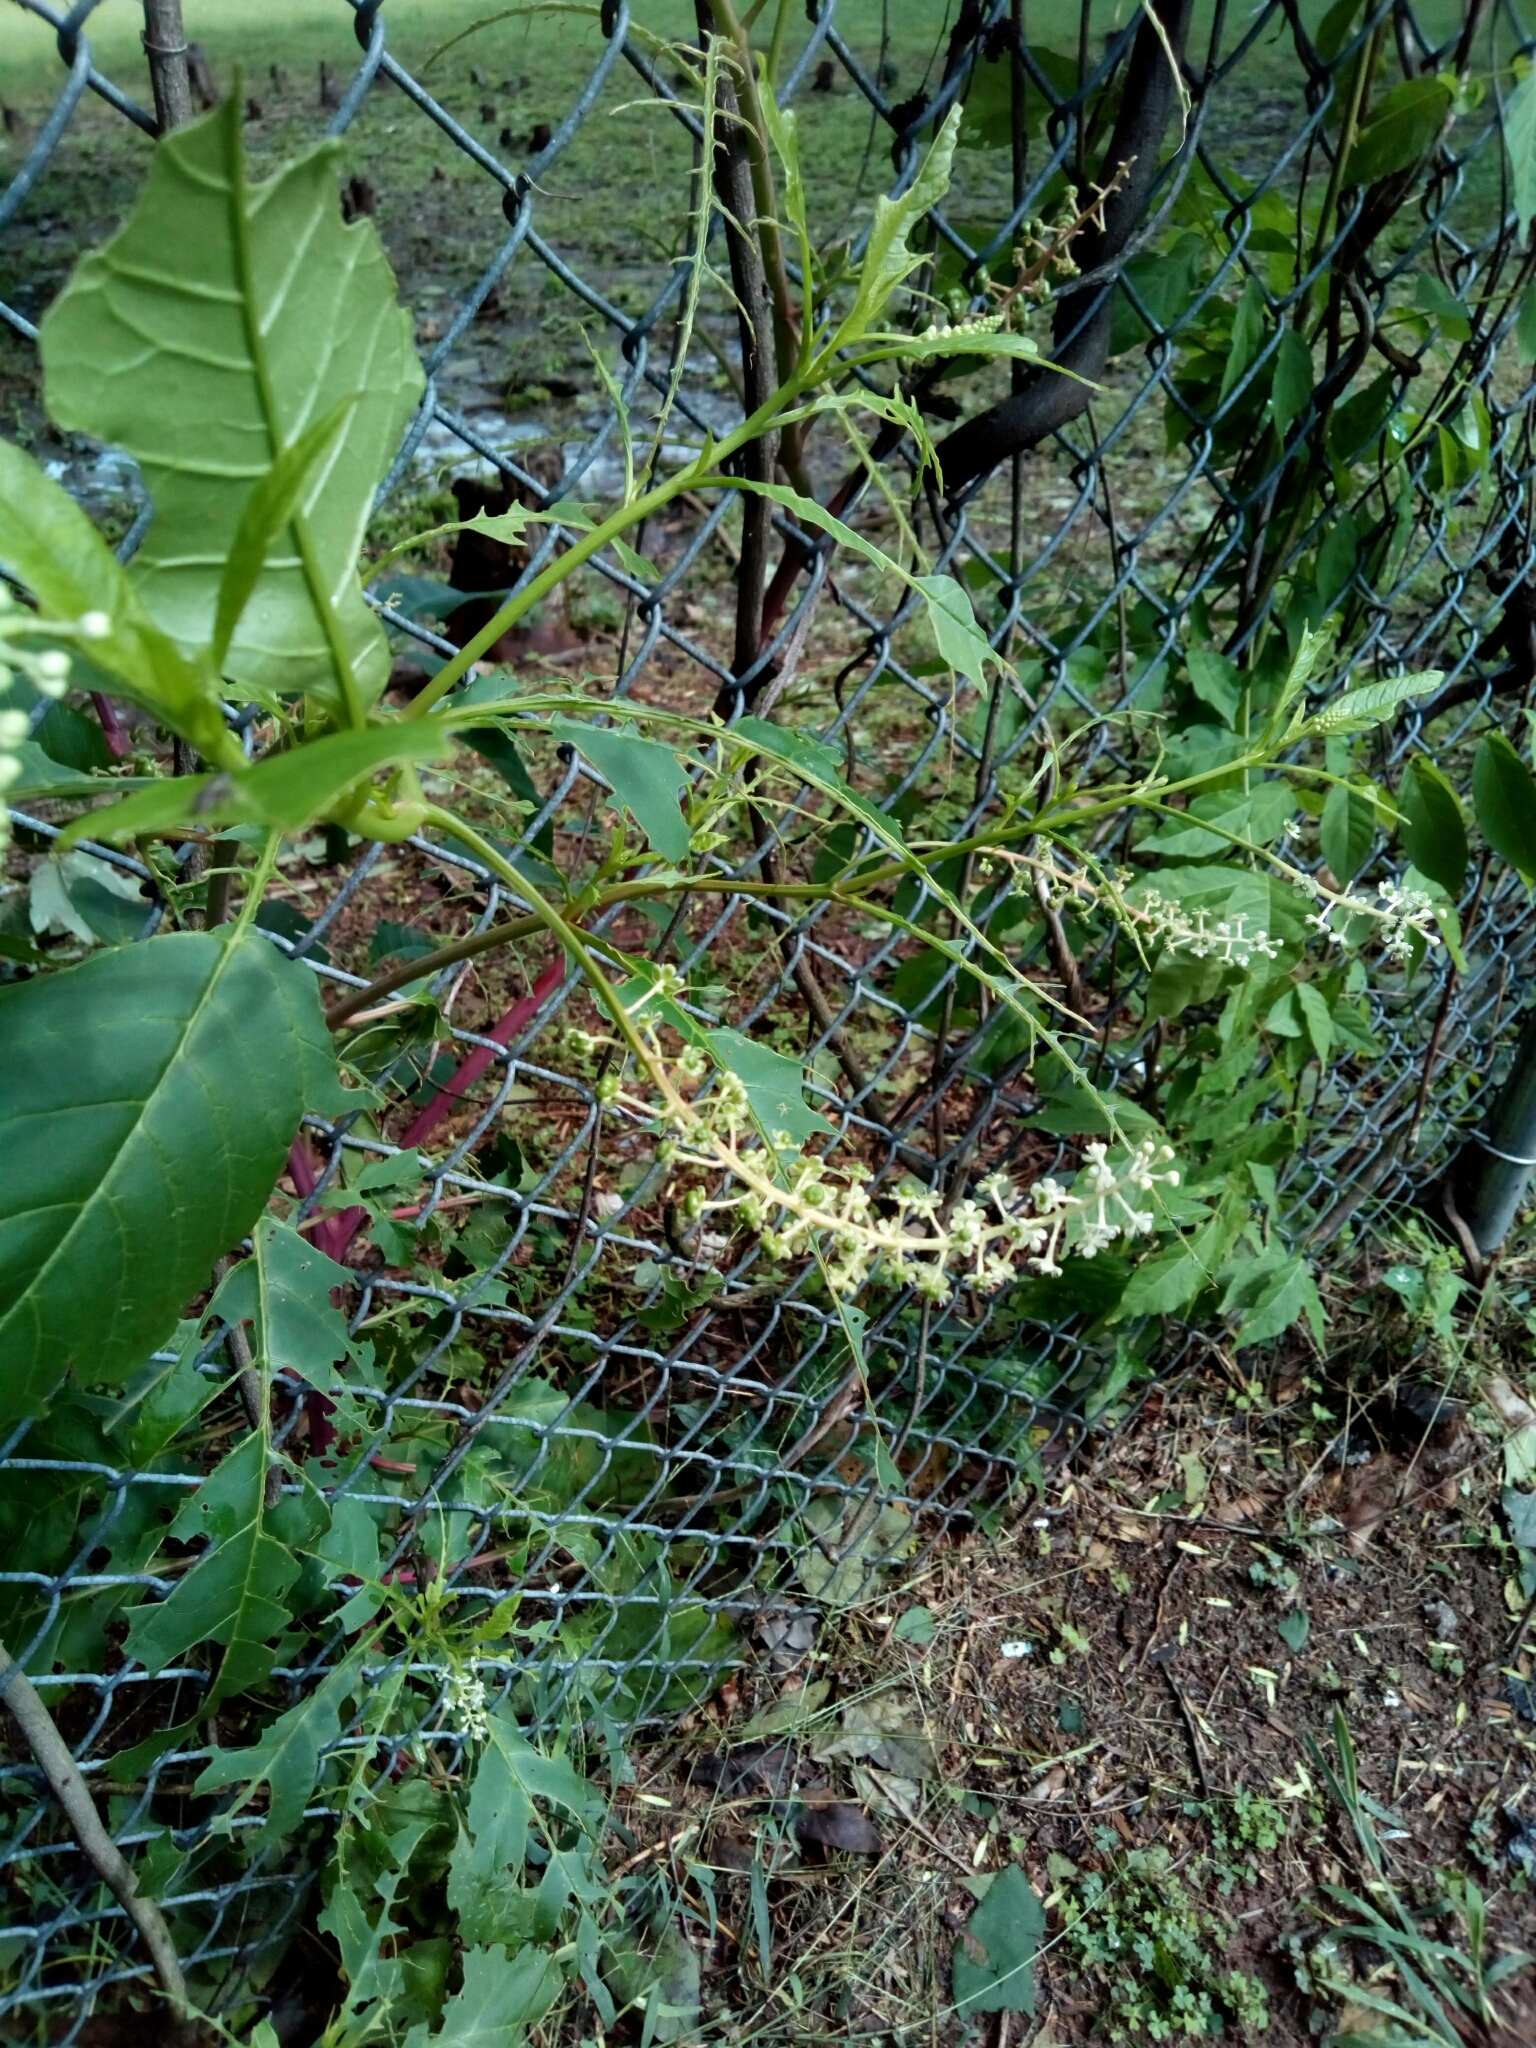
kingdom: Plantae
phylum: Tracheophyta
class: Magnoliopsida
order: Caryophyllales
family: Phytolaccaceae
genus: Phytolacca
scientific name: Phytolacca americana
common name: American pokeweed
